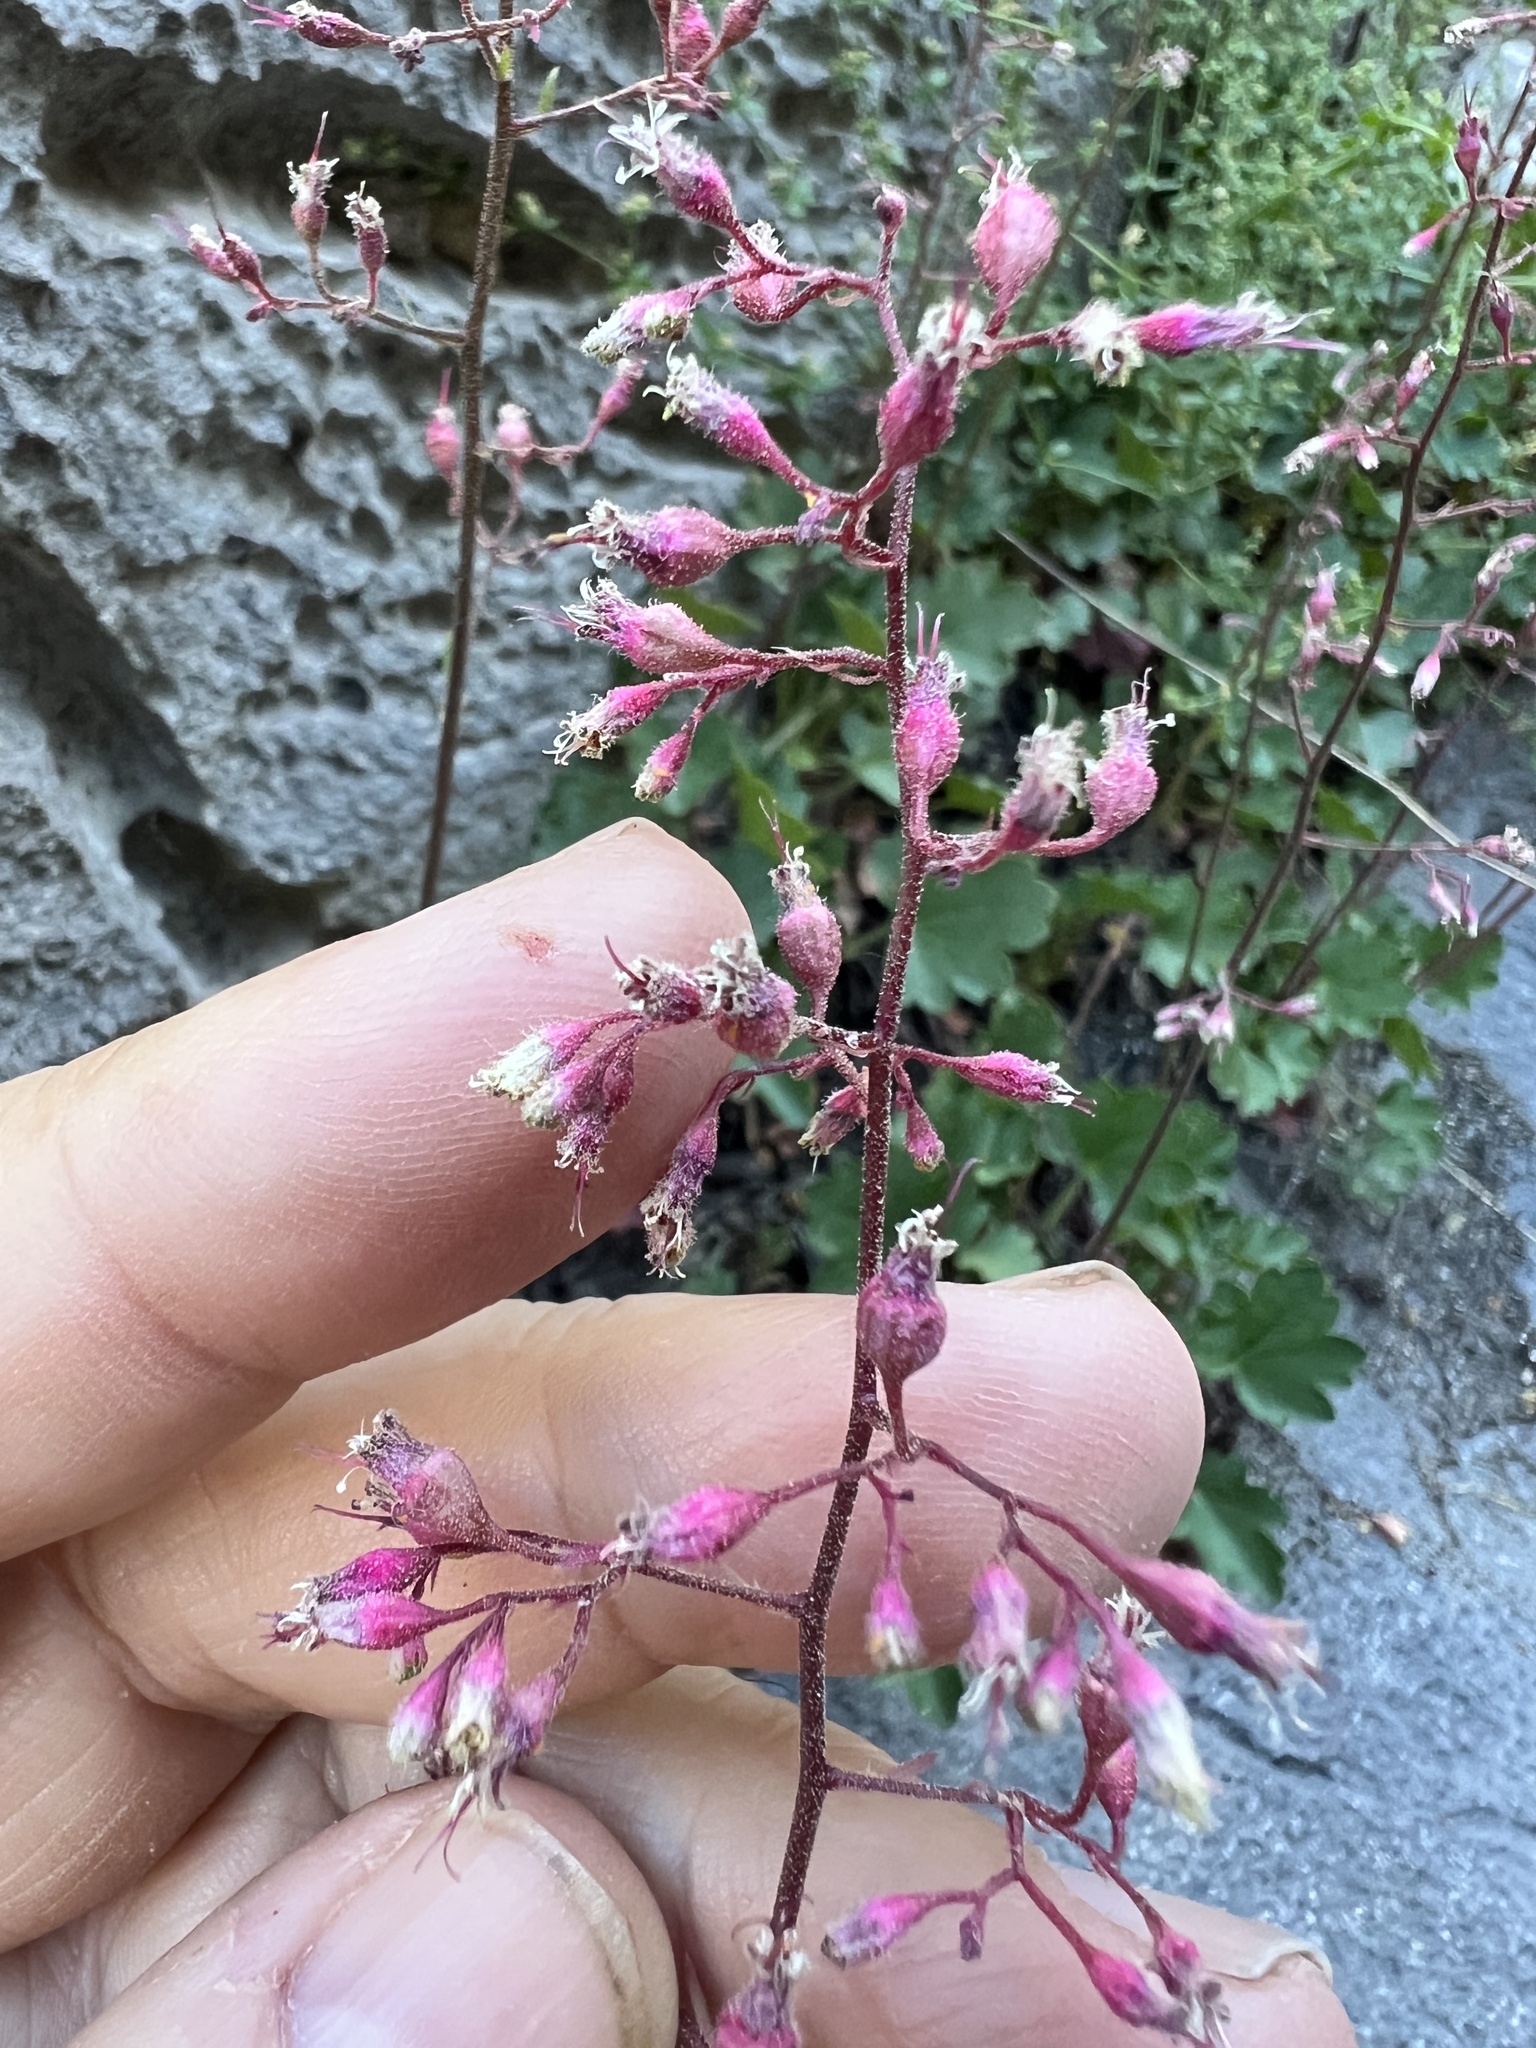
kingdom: Plantae
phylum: Tracheophyta
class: Magnoliopsida
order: Saxifragales
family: Saxifragaceae
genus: Heuchera
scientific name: Heuchera rubescens
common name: Jack-o'the-rocks
